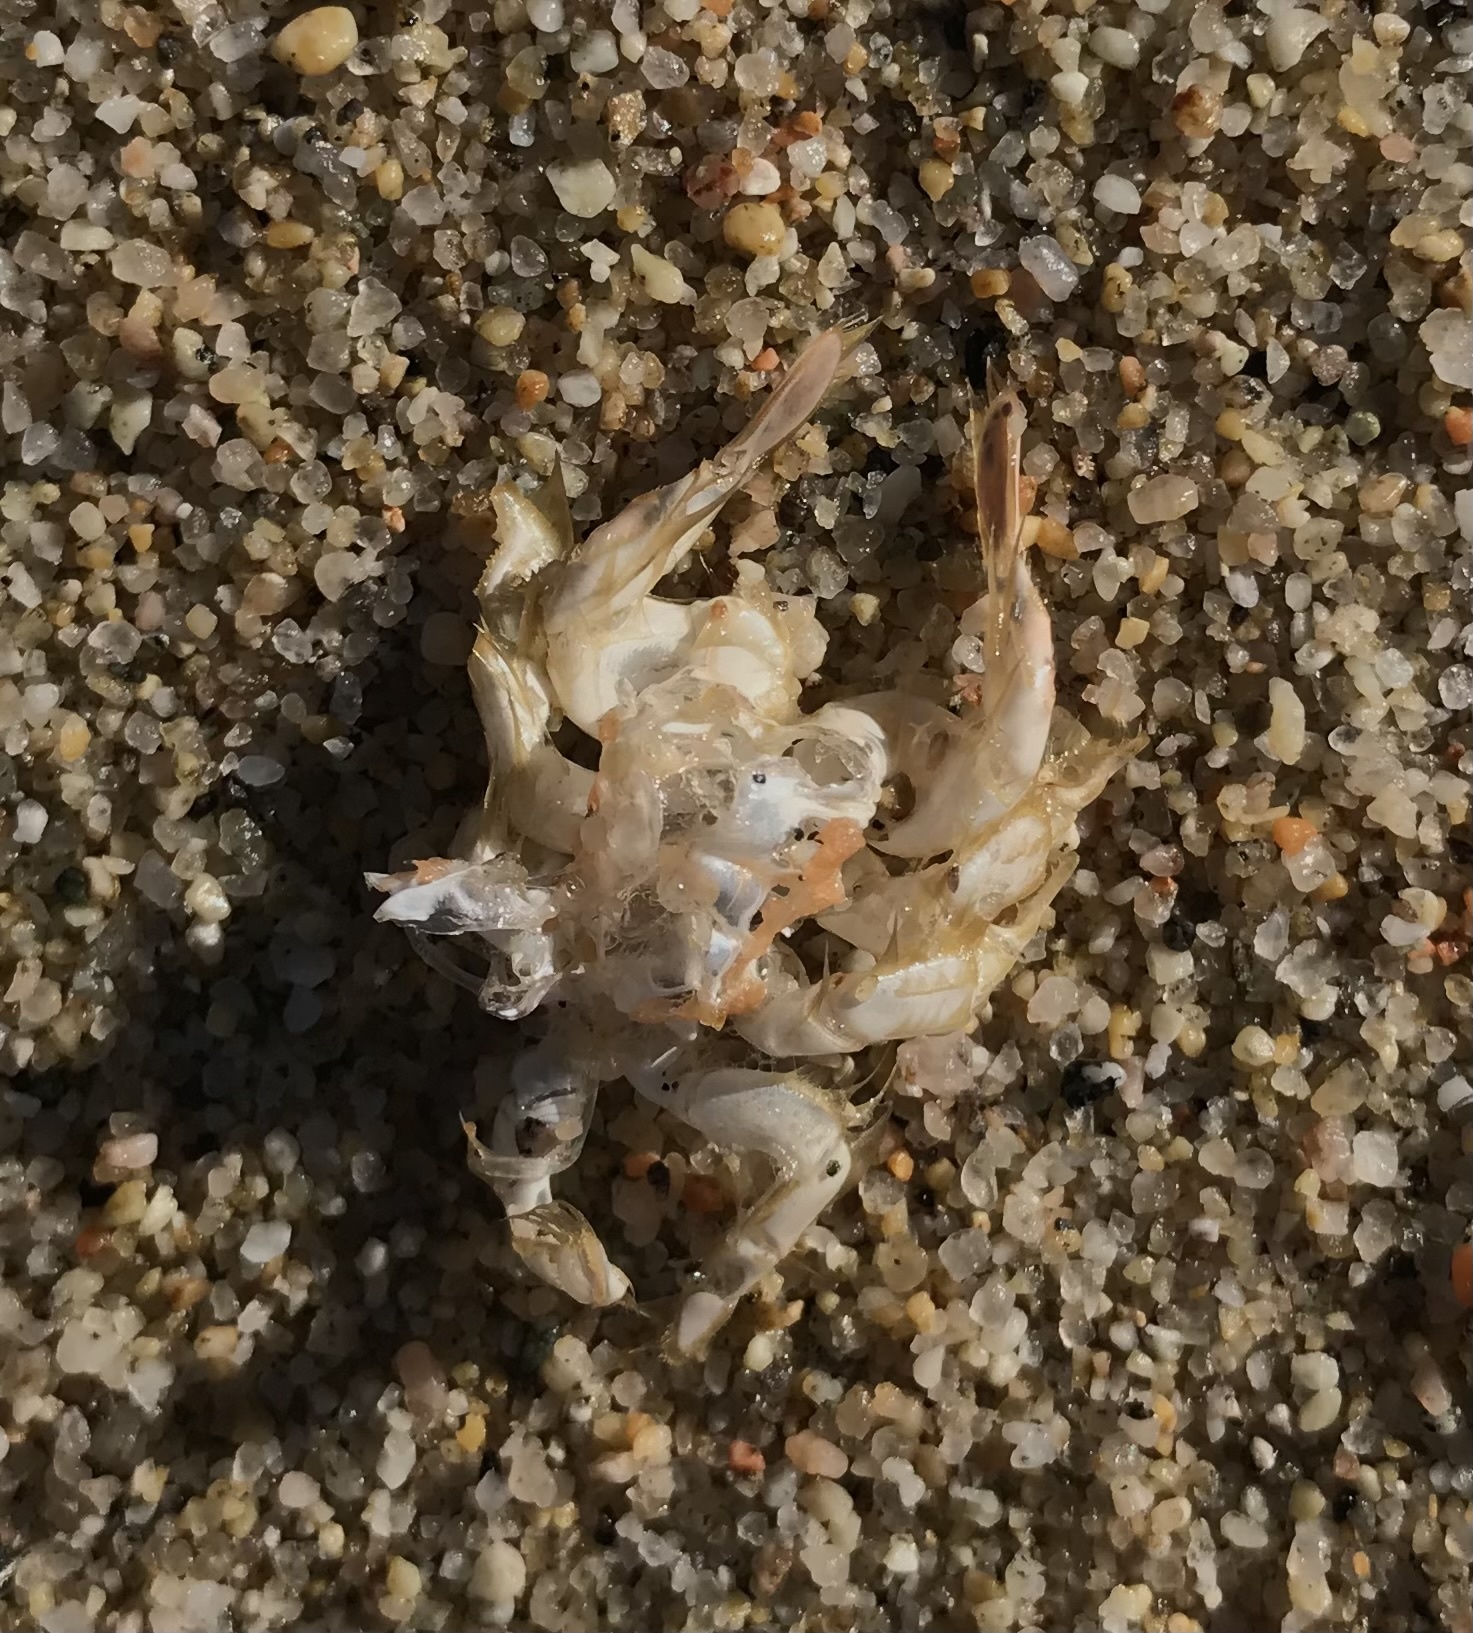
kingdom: Animalia
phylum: Arthropoda
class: Malacostraca
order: Decapoda
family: Hippidae
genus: Emerita
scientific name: Emerita analoga
